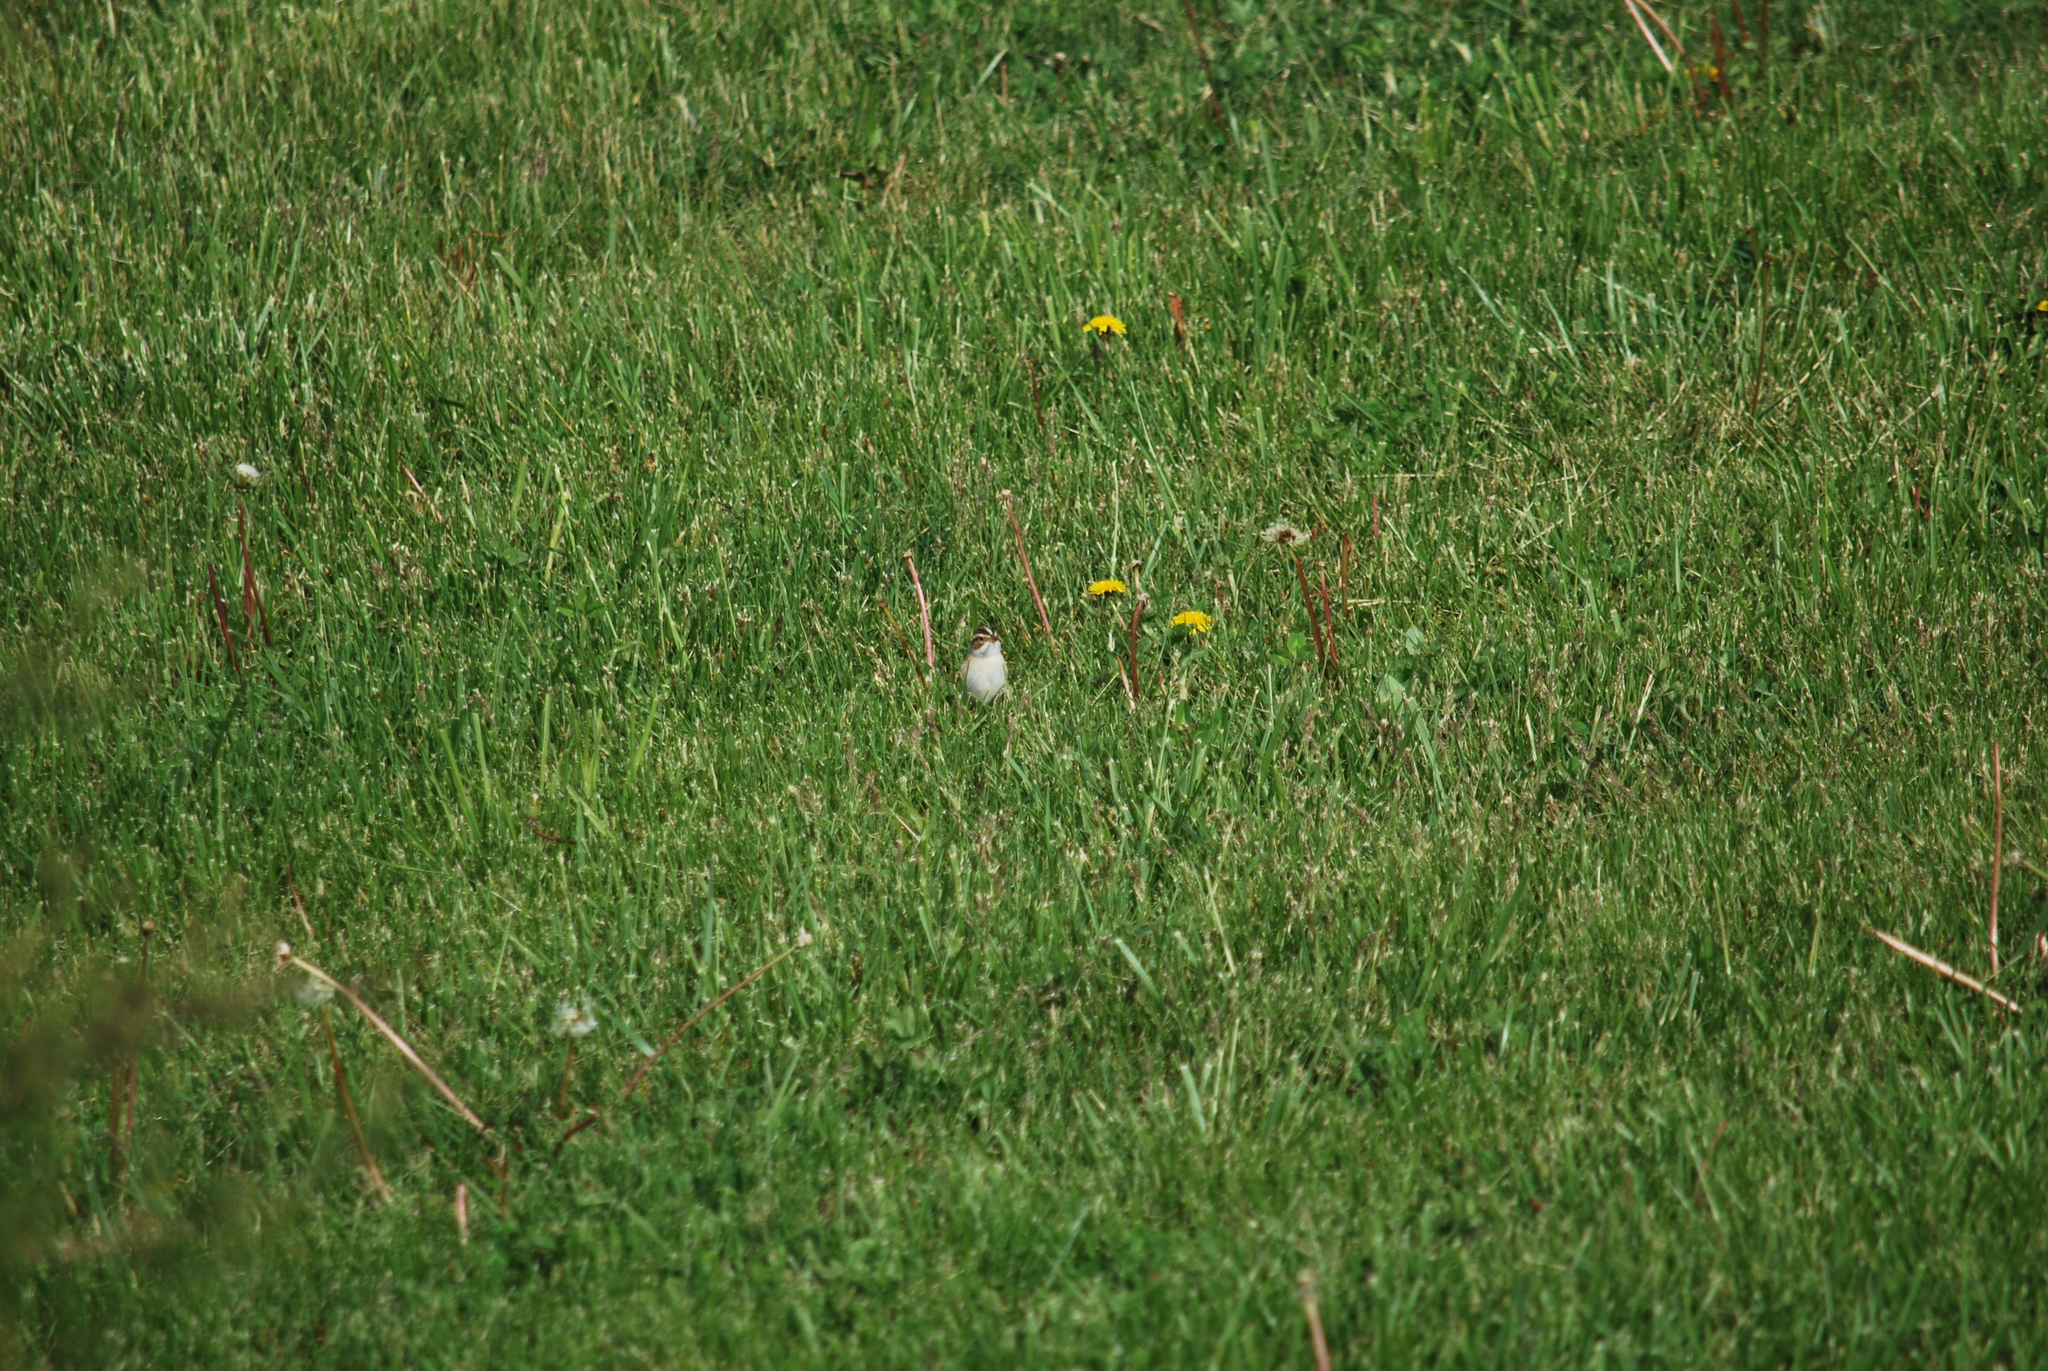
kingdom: Animalia
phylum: Chordata
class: Aves
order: Passeriformes
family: Passerellidae
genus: Spizella
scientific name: Spizella pallida
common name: Clay-colored sparrow
